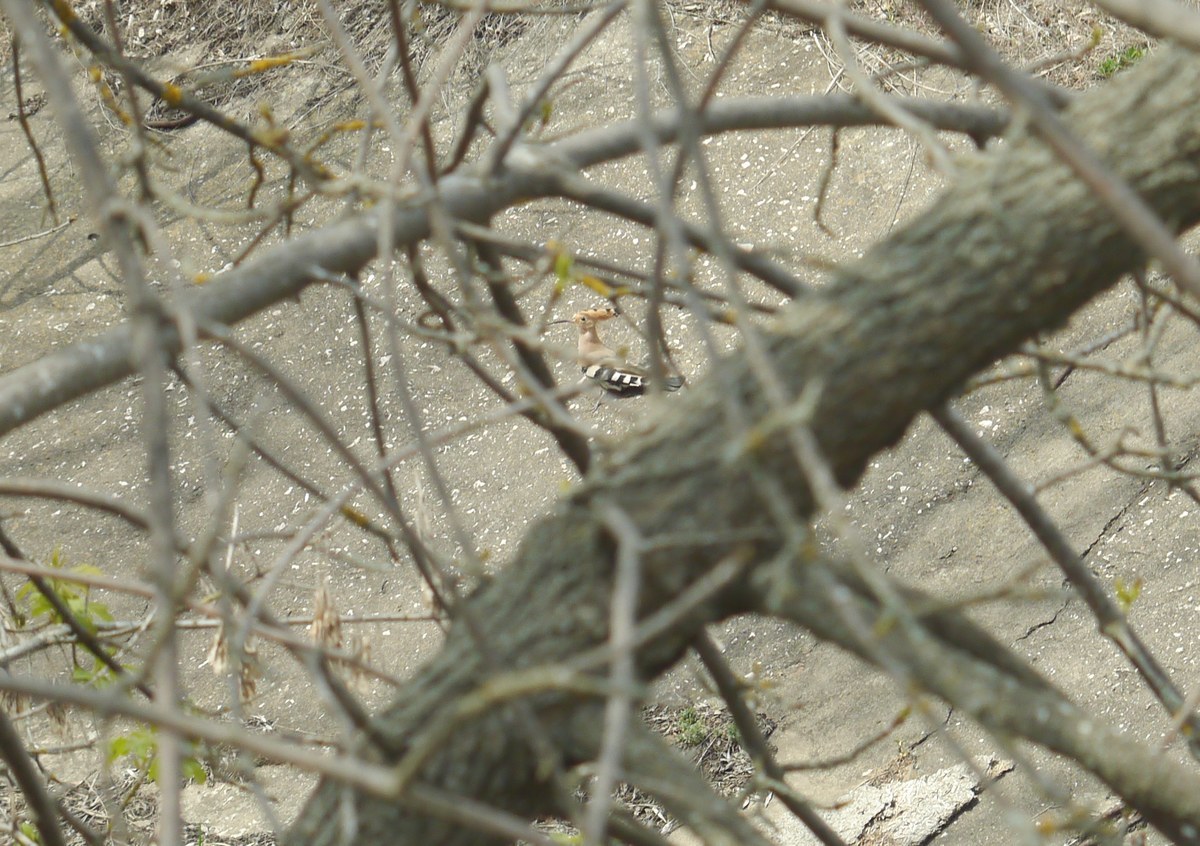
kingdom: Animalia
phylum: Chordata
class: Aves
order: Bucerotiformes
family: Upupidae
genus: Upupa
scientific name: Upupa epops
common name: Eurasian hoopoe
